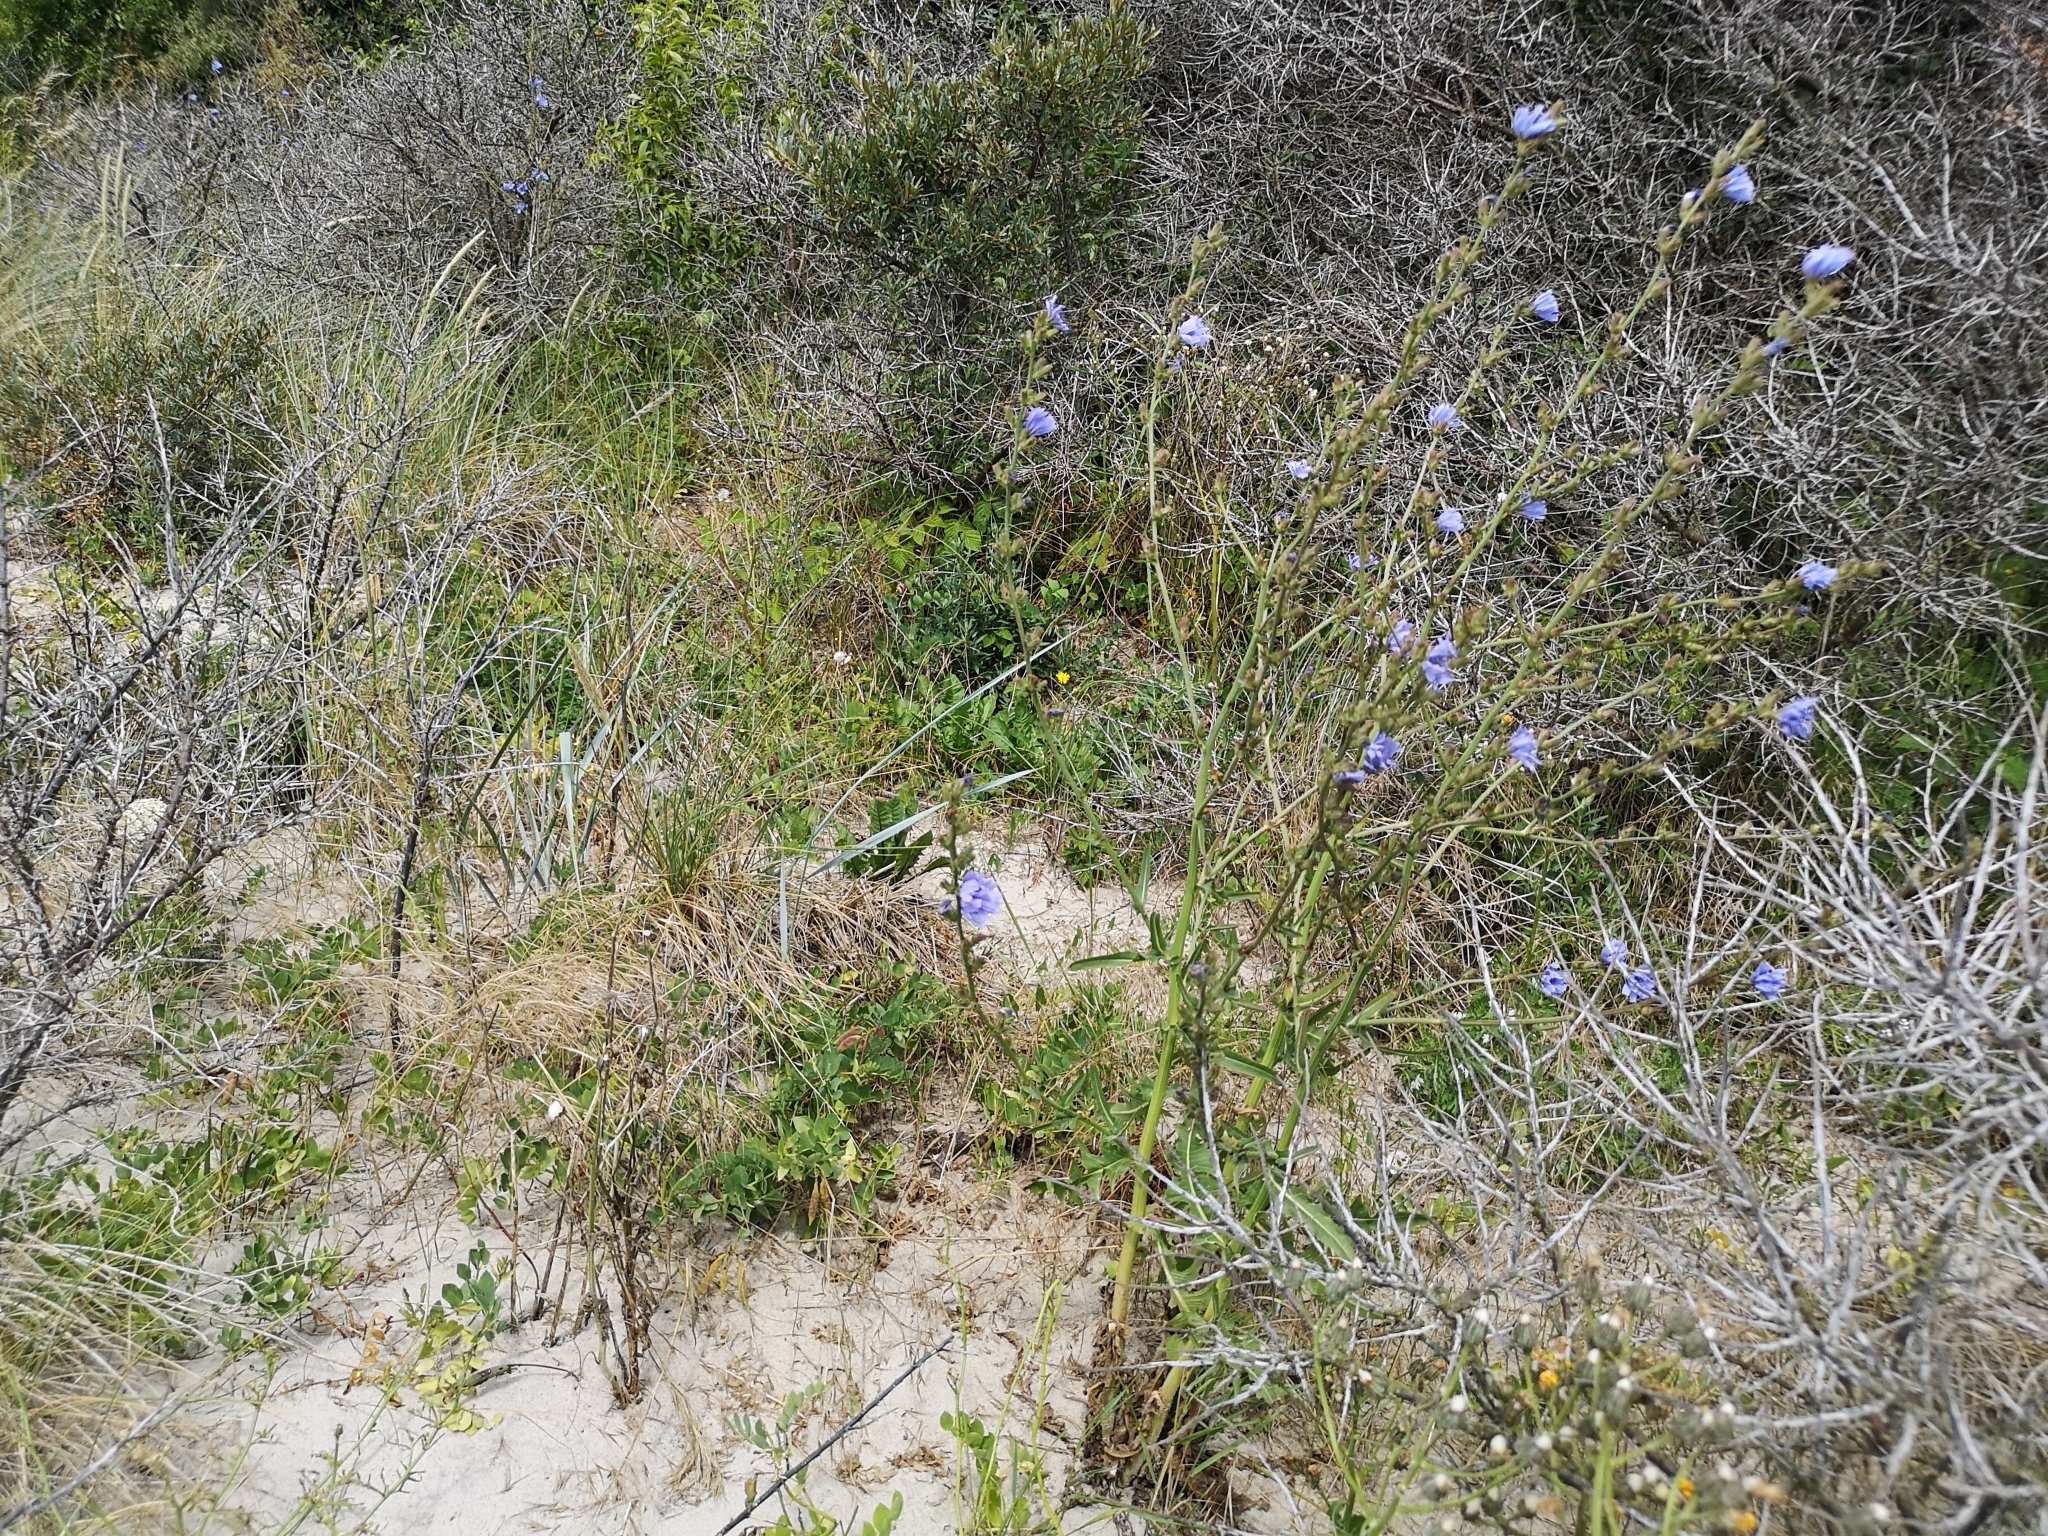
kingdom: Plantae
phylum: Tracheophyta
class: Magnoliopsida
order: Asterales
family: Asteraceae
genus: Cichorium
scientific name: Cichorium intybus
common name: Chicory
